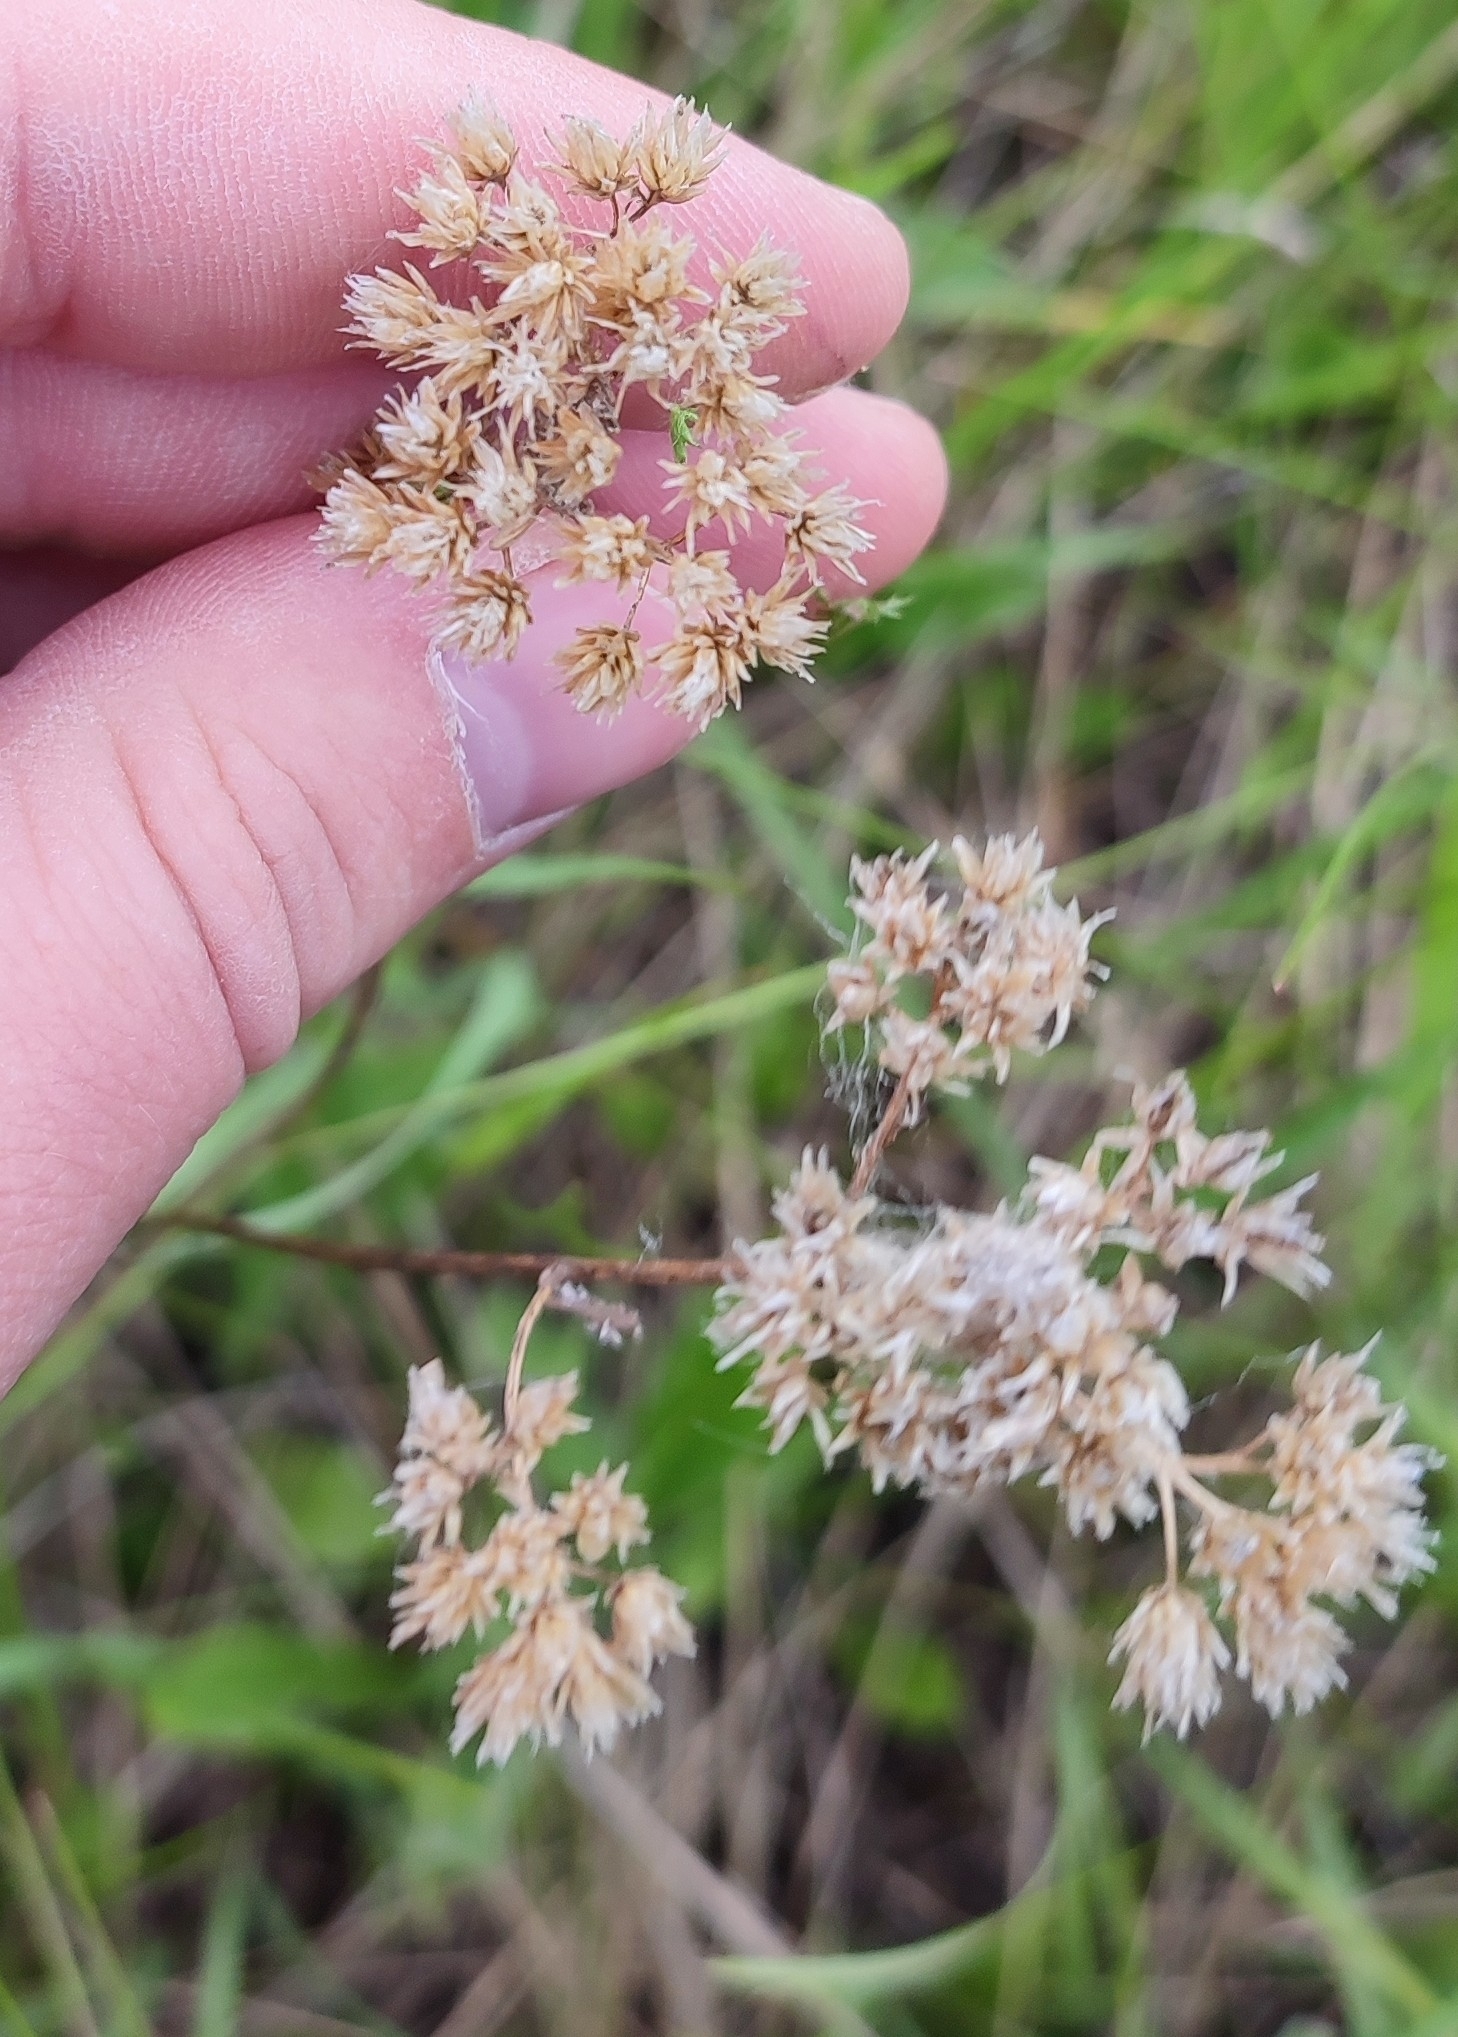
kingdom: Plantae
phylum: Tracheophyta
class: Magnoliopsida
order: Asterales
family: Asteraceae
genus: Achillea
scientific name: Achillea millefolium
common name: Yarrow
